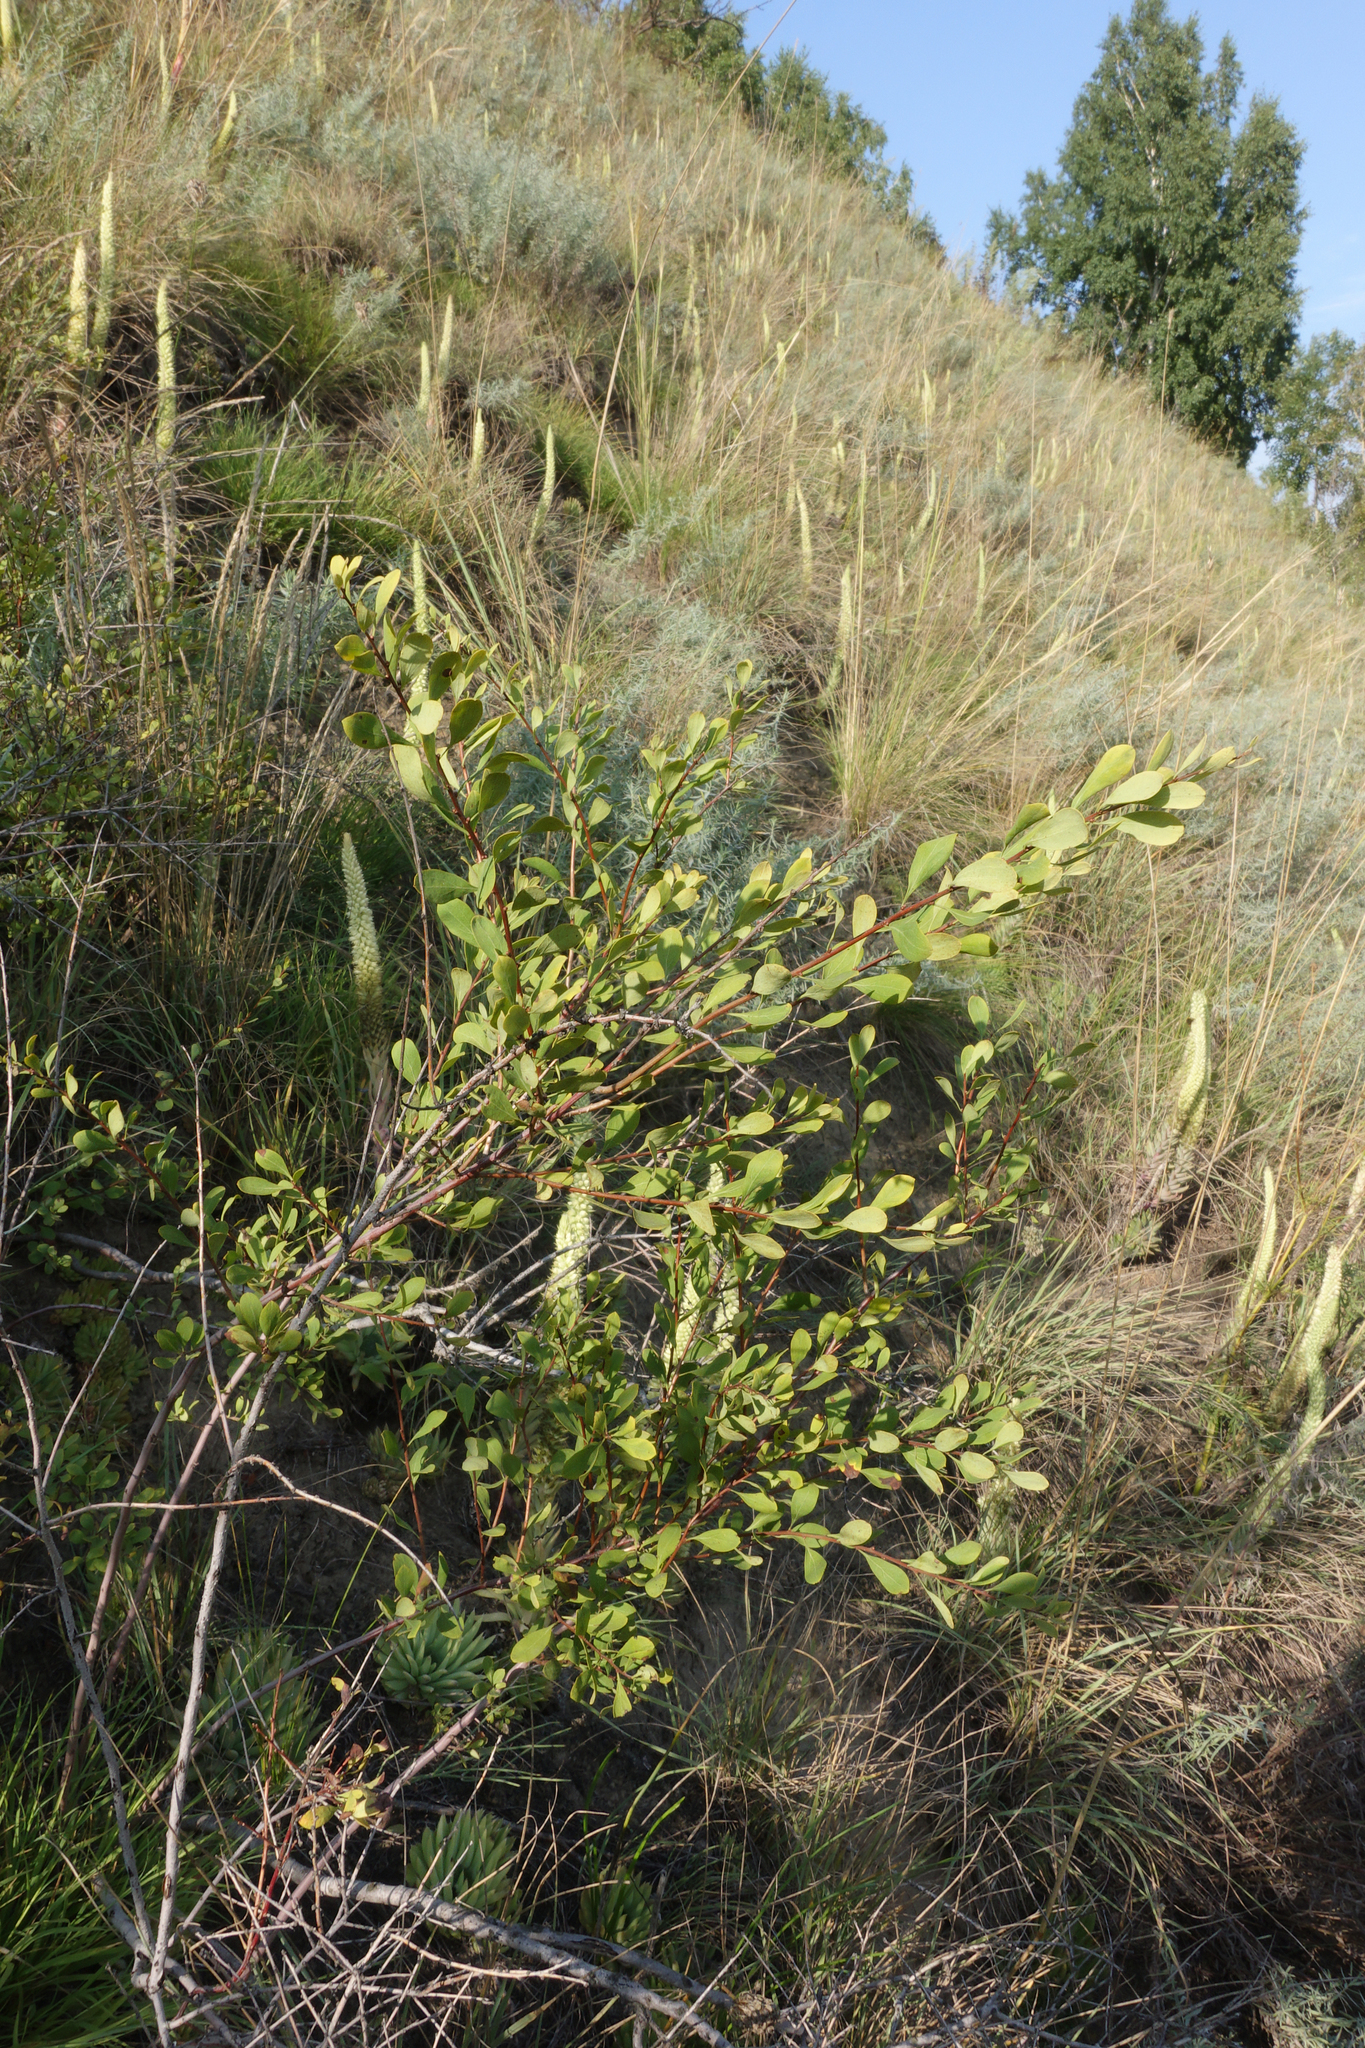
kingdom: Plantae
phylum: Tracheophyta
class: Magnoliopsida
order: Rosales
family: Rosaceae
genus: Spiraea
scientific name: Spiraea hypericifolia
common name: Iberian spirea
